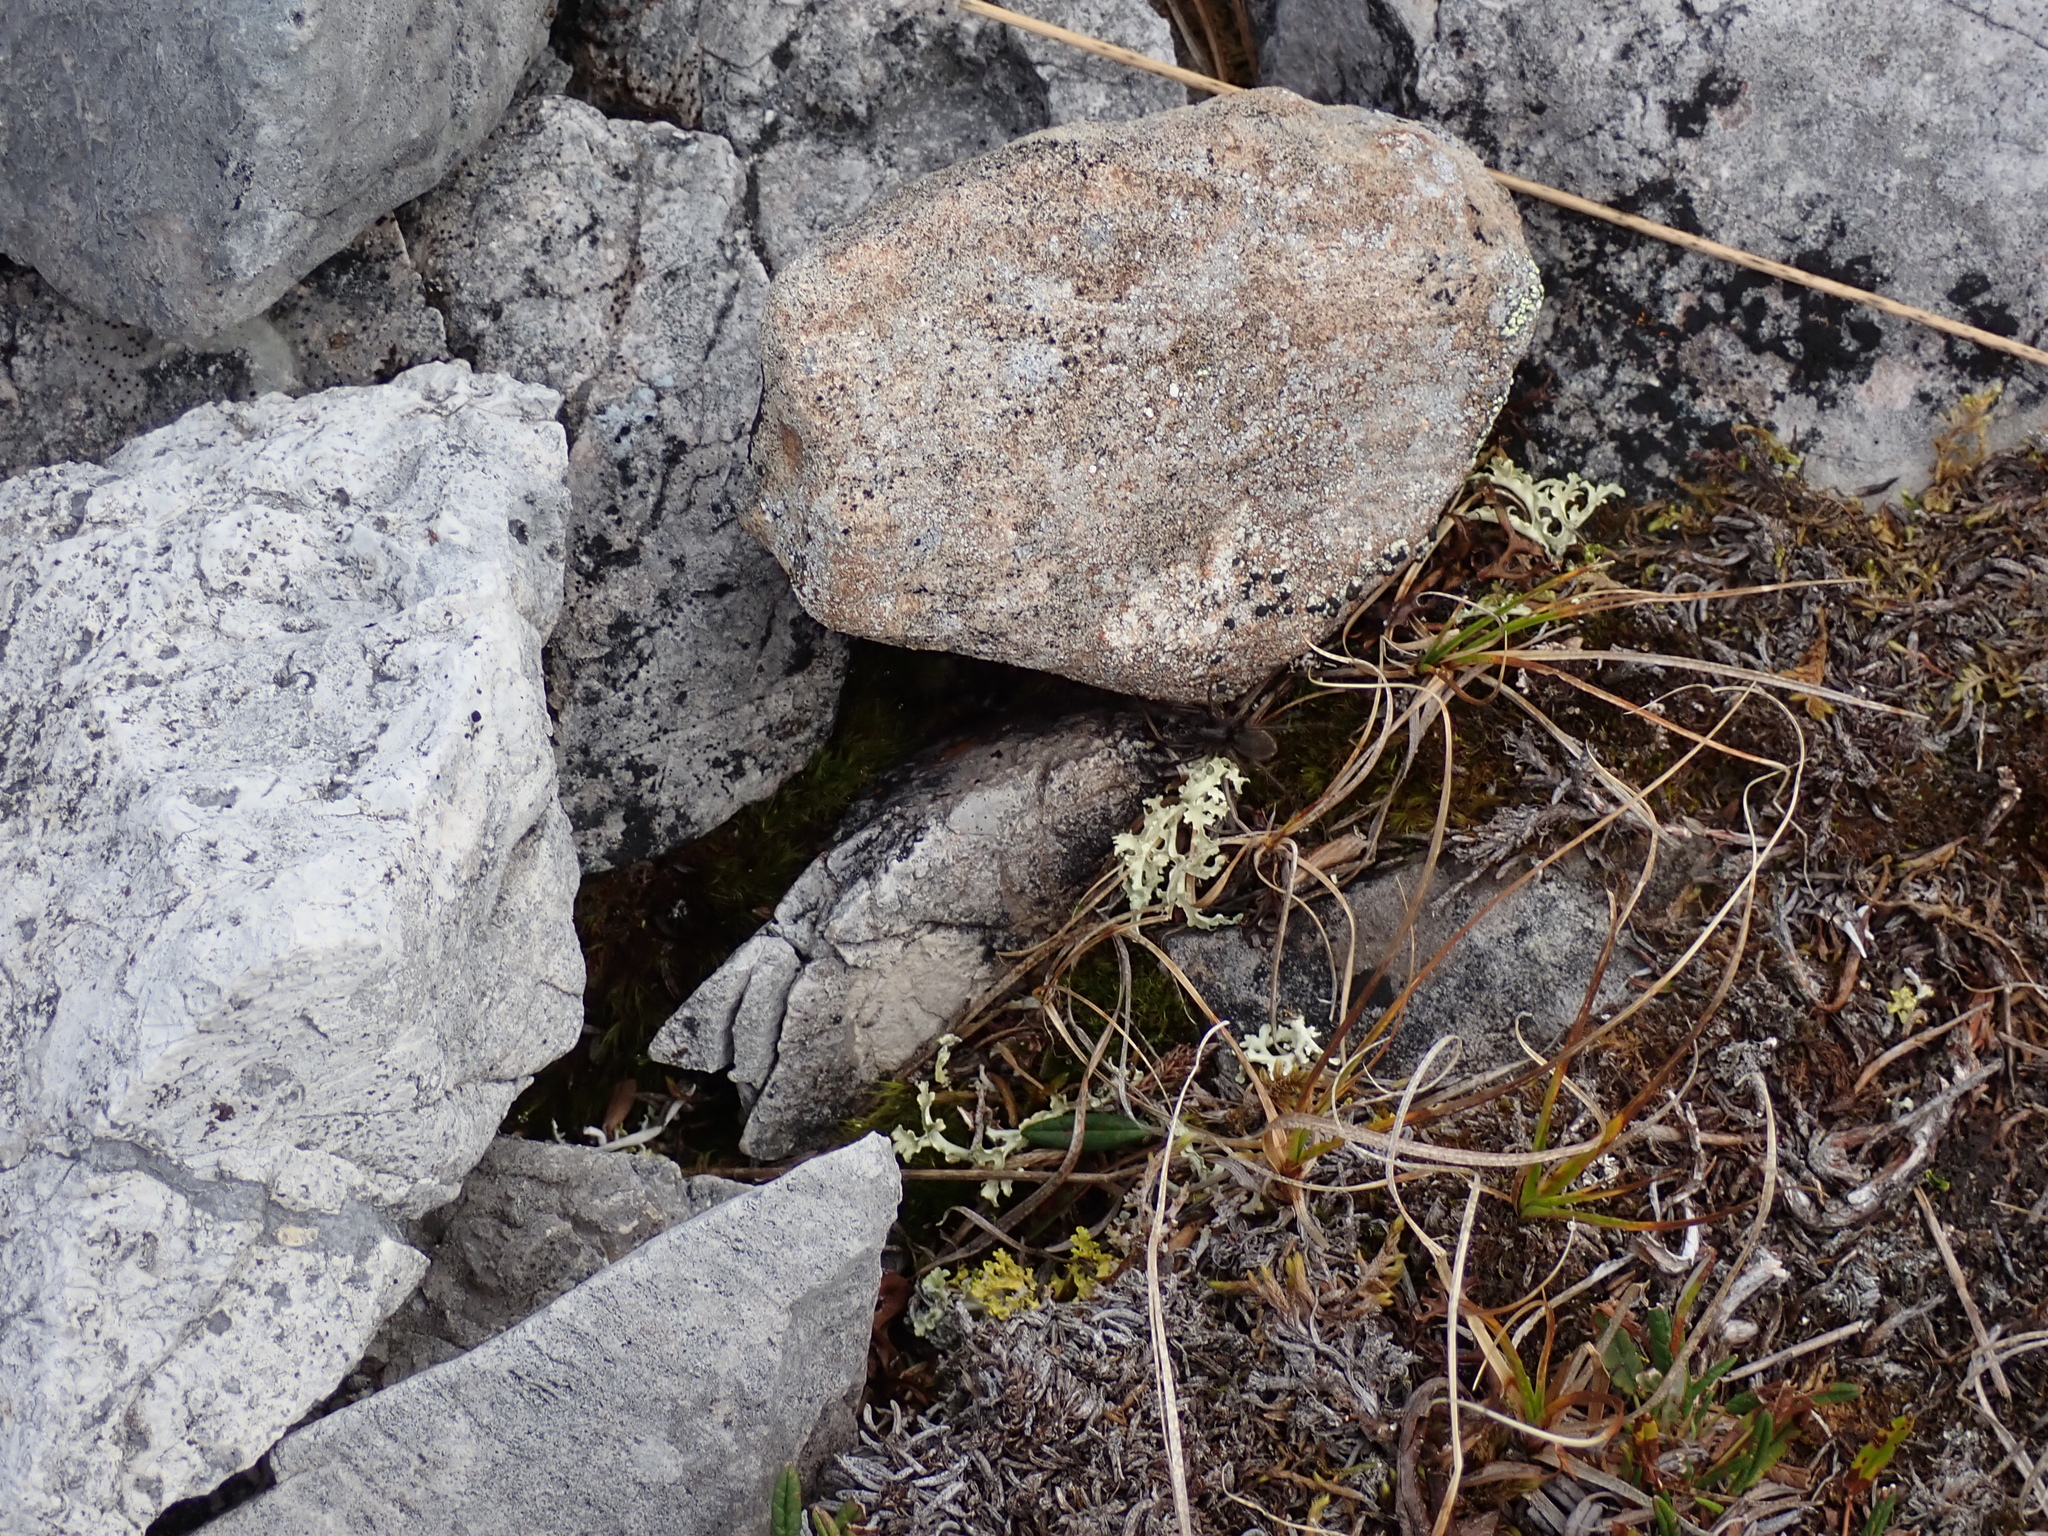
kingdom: Fungi
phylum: Ascomycota
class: Lecanoromycetes
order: Lecanorales
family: Parmeliaceae
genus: Nephromopsis
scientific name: Nephromopsis cucullata
